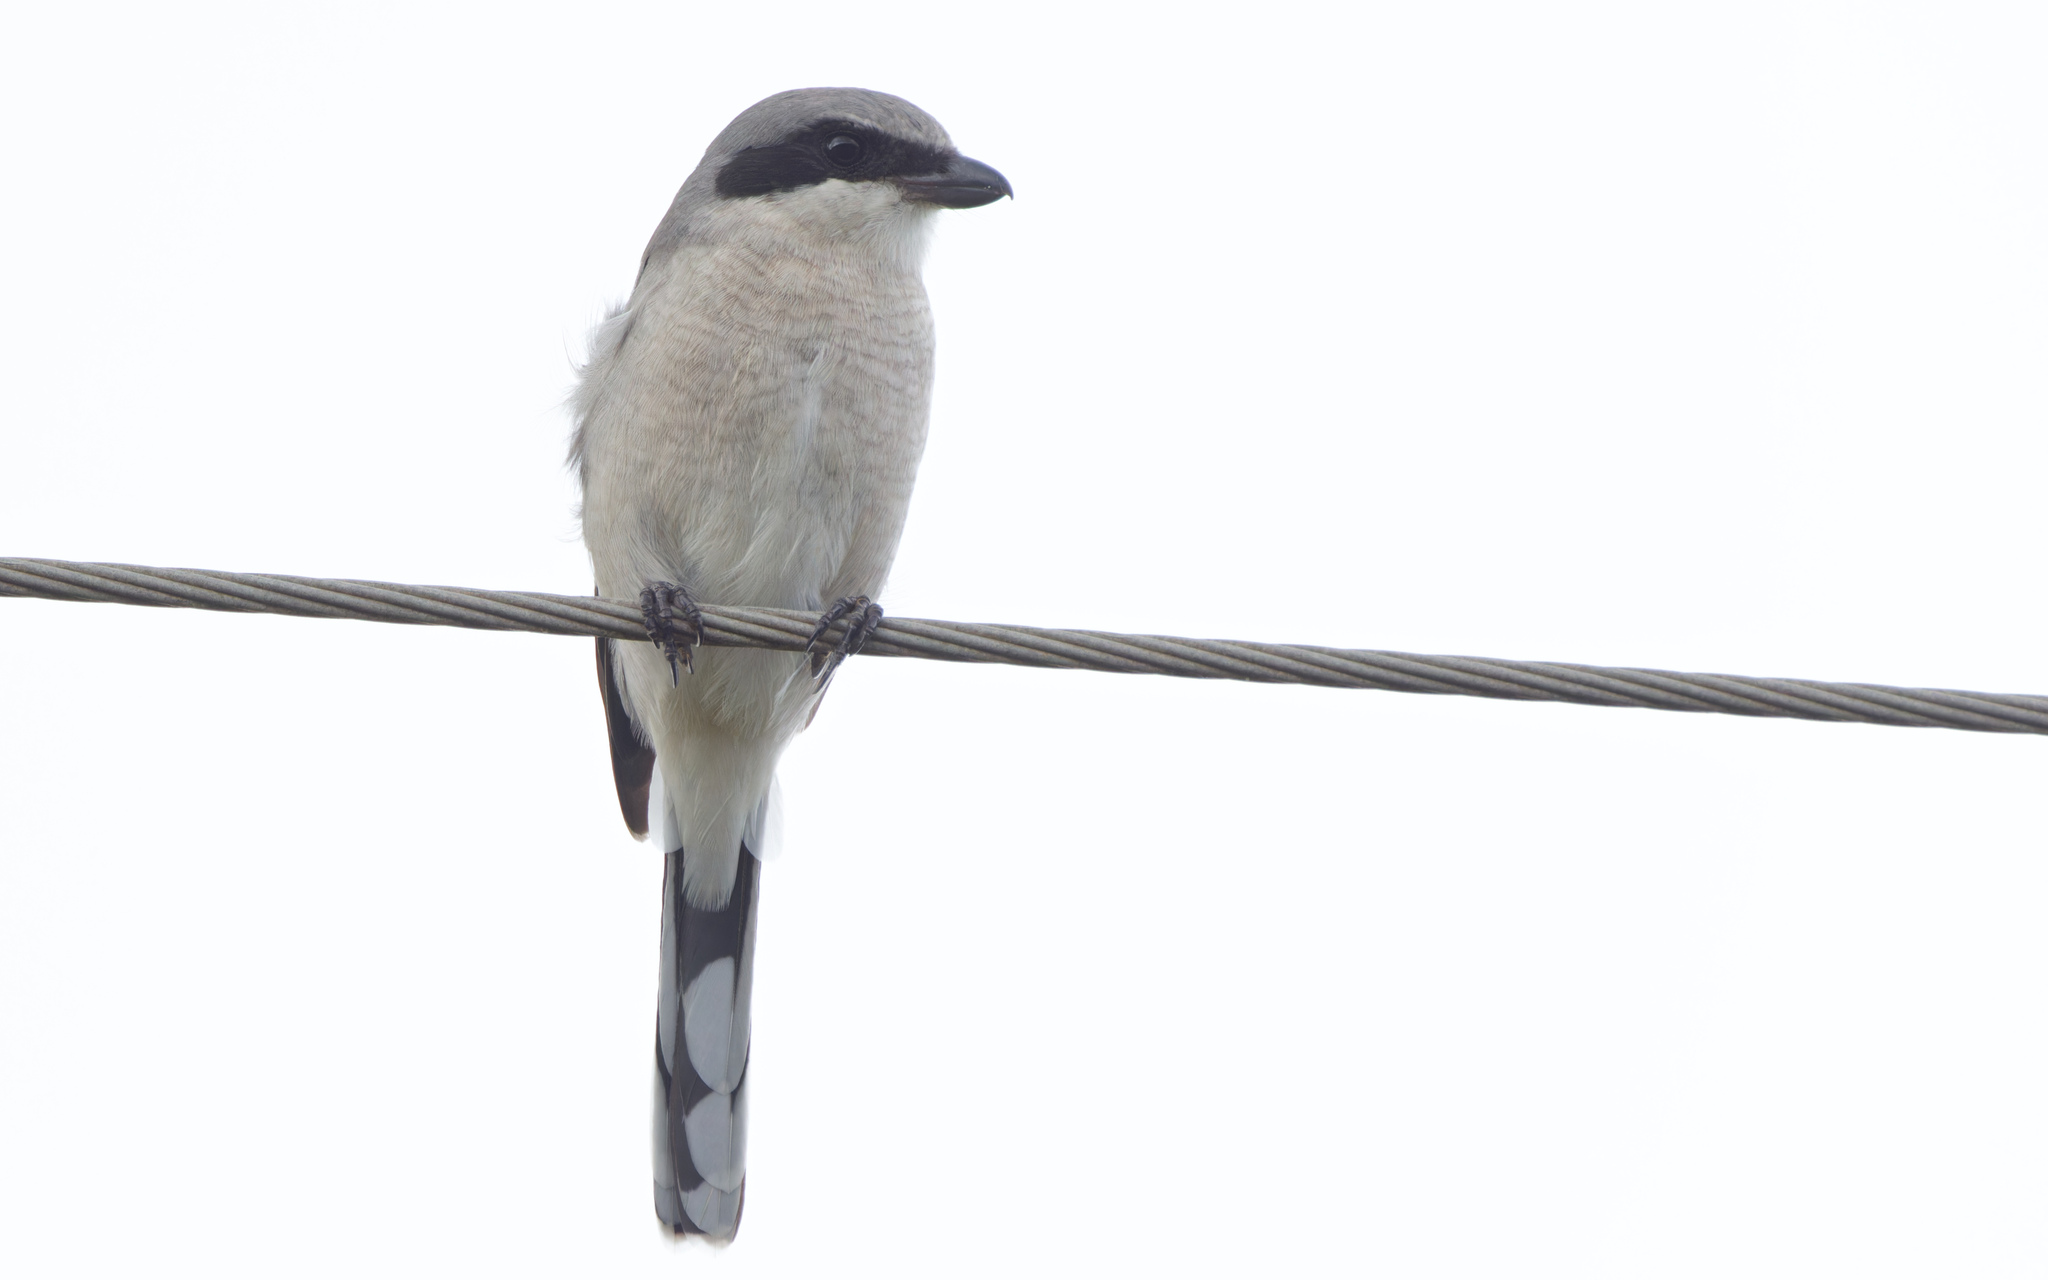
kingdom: Animalia
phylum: Chordata
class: Aves
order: Passeriformes
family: Laniidae
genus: Lanius
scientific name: Lanius ludovicianus
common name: Loggerhead shrike
